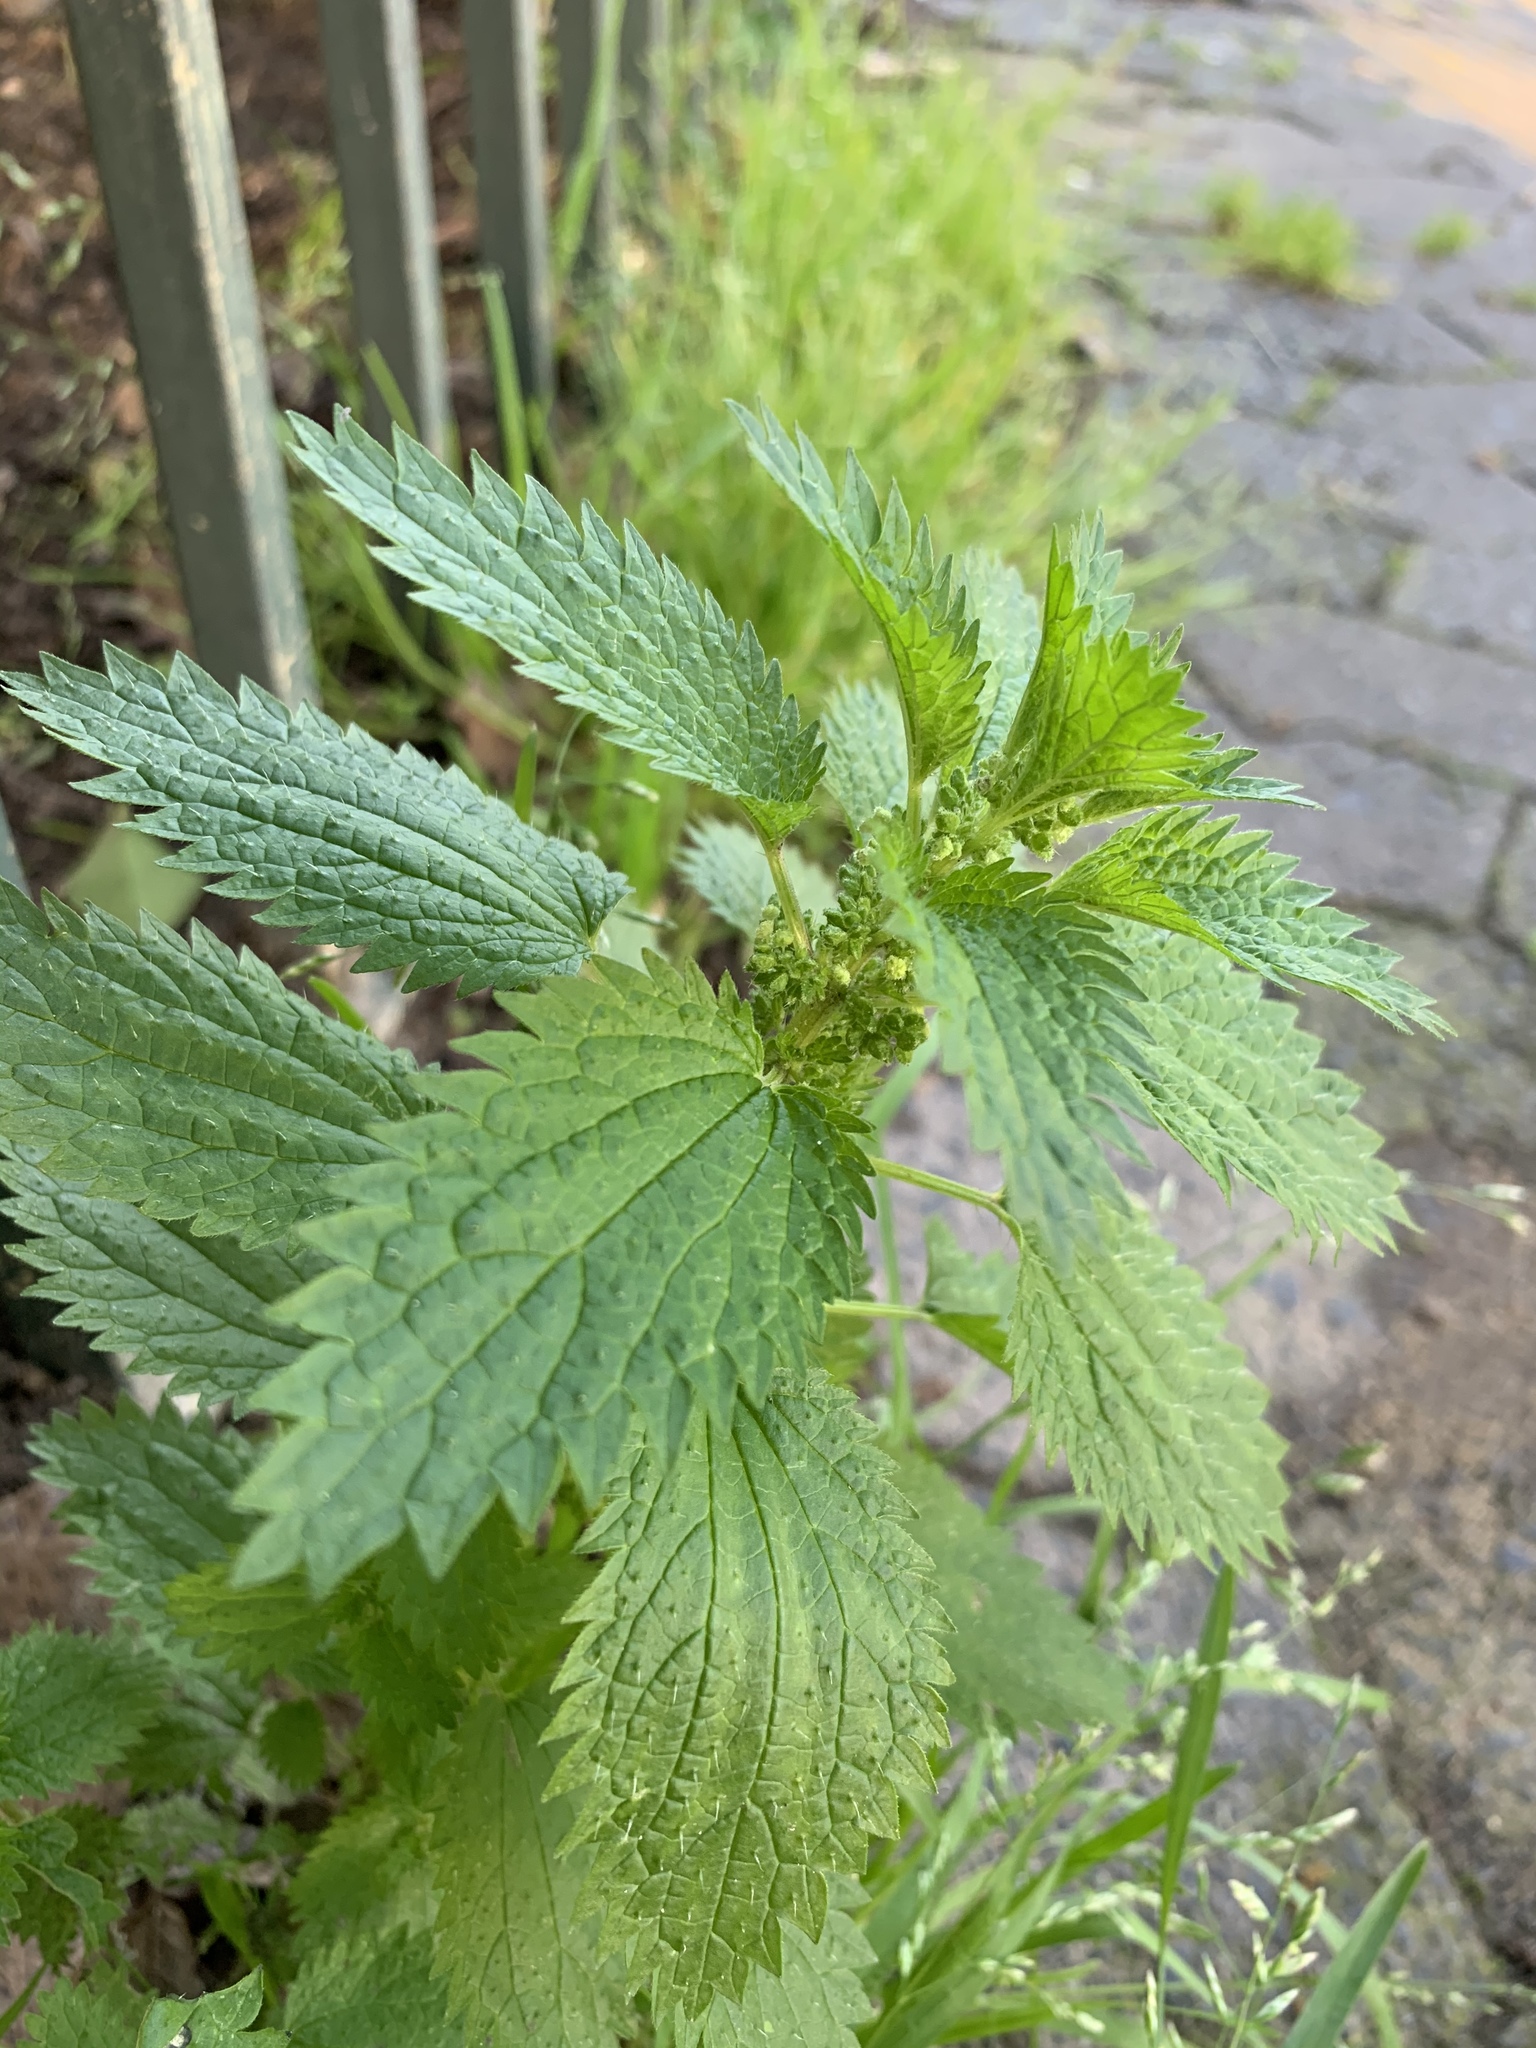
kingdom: Plantae
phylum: Tracheophyta
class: Magnoliopsida
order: Rosales
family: Urticaceae
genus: Urtica
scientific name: Urtica urens
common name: Dwarf nettle
